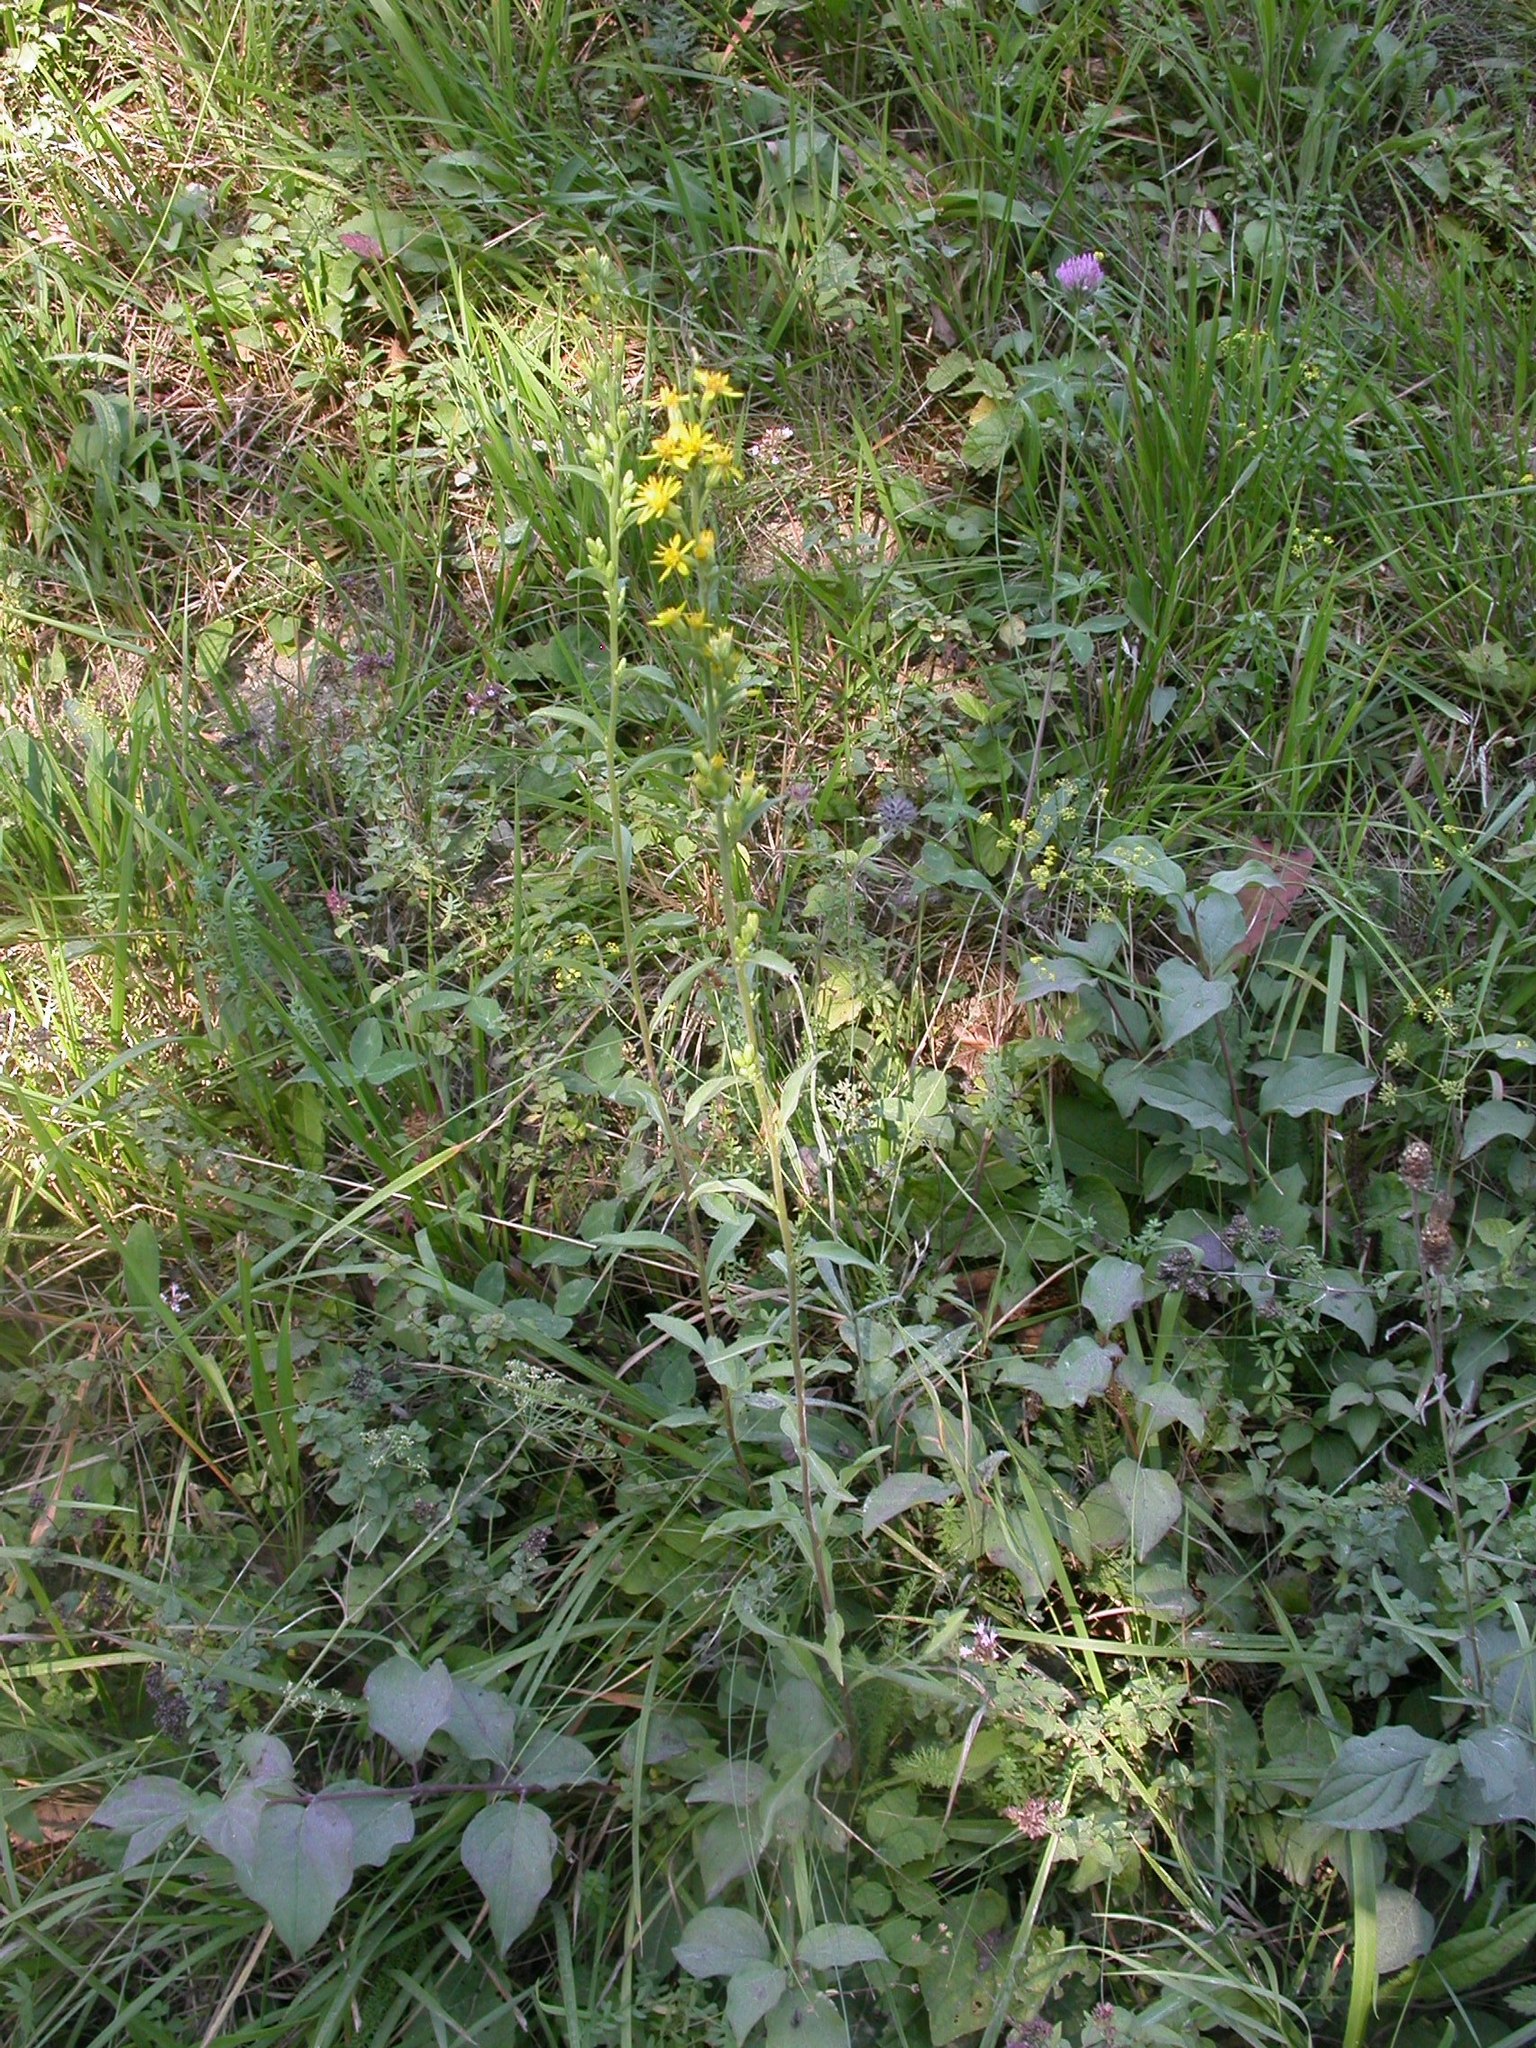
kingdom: Plantae
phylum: Tracheophyta
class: Magnoliopsida
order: Asterales
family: Asteraceae
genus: Solidago
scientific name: Solidago virgaurea
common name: Goldenrod
